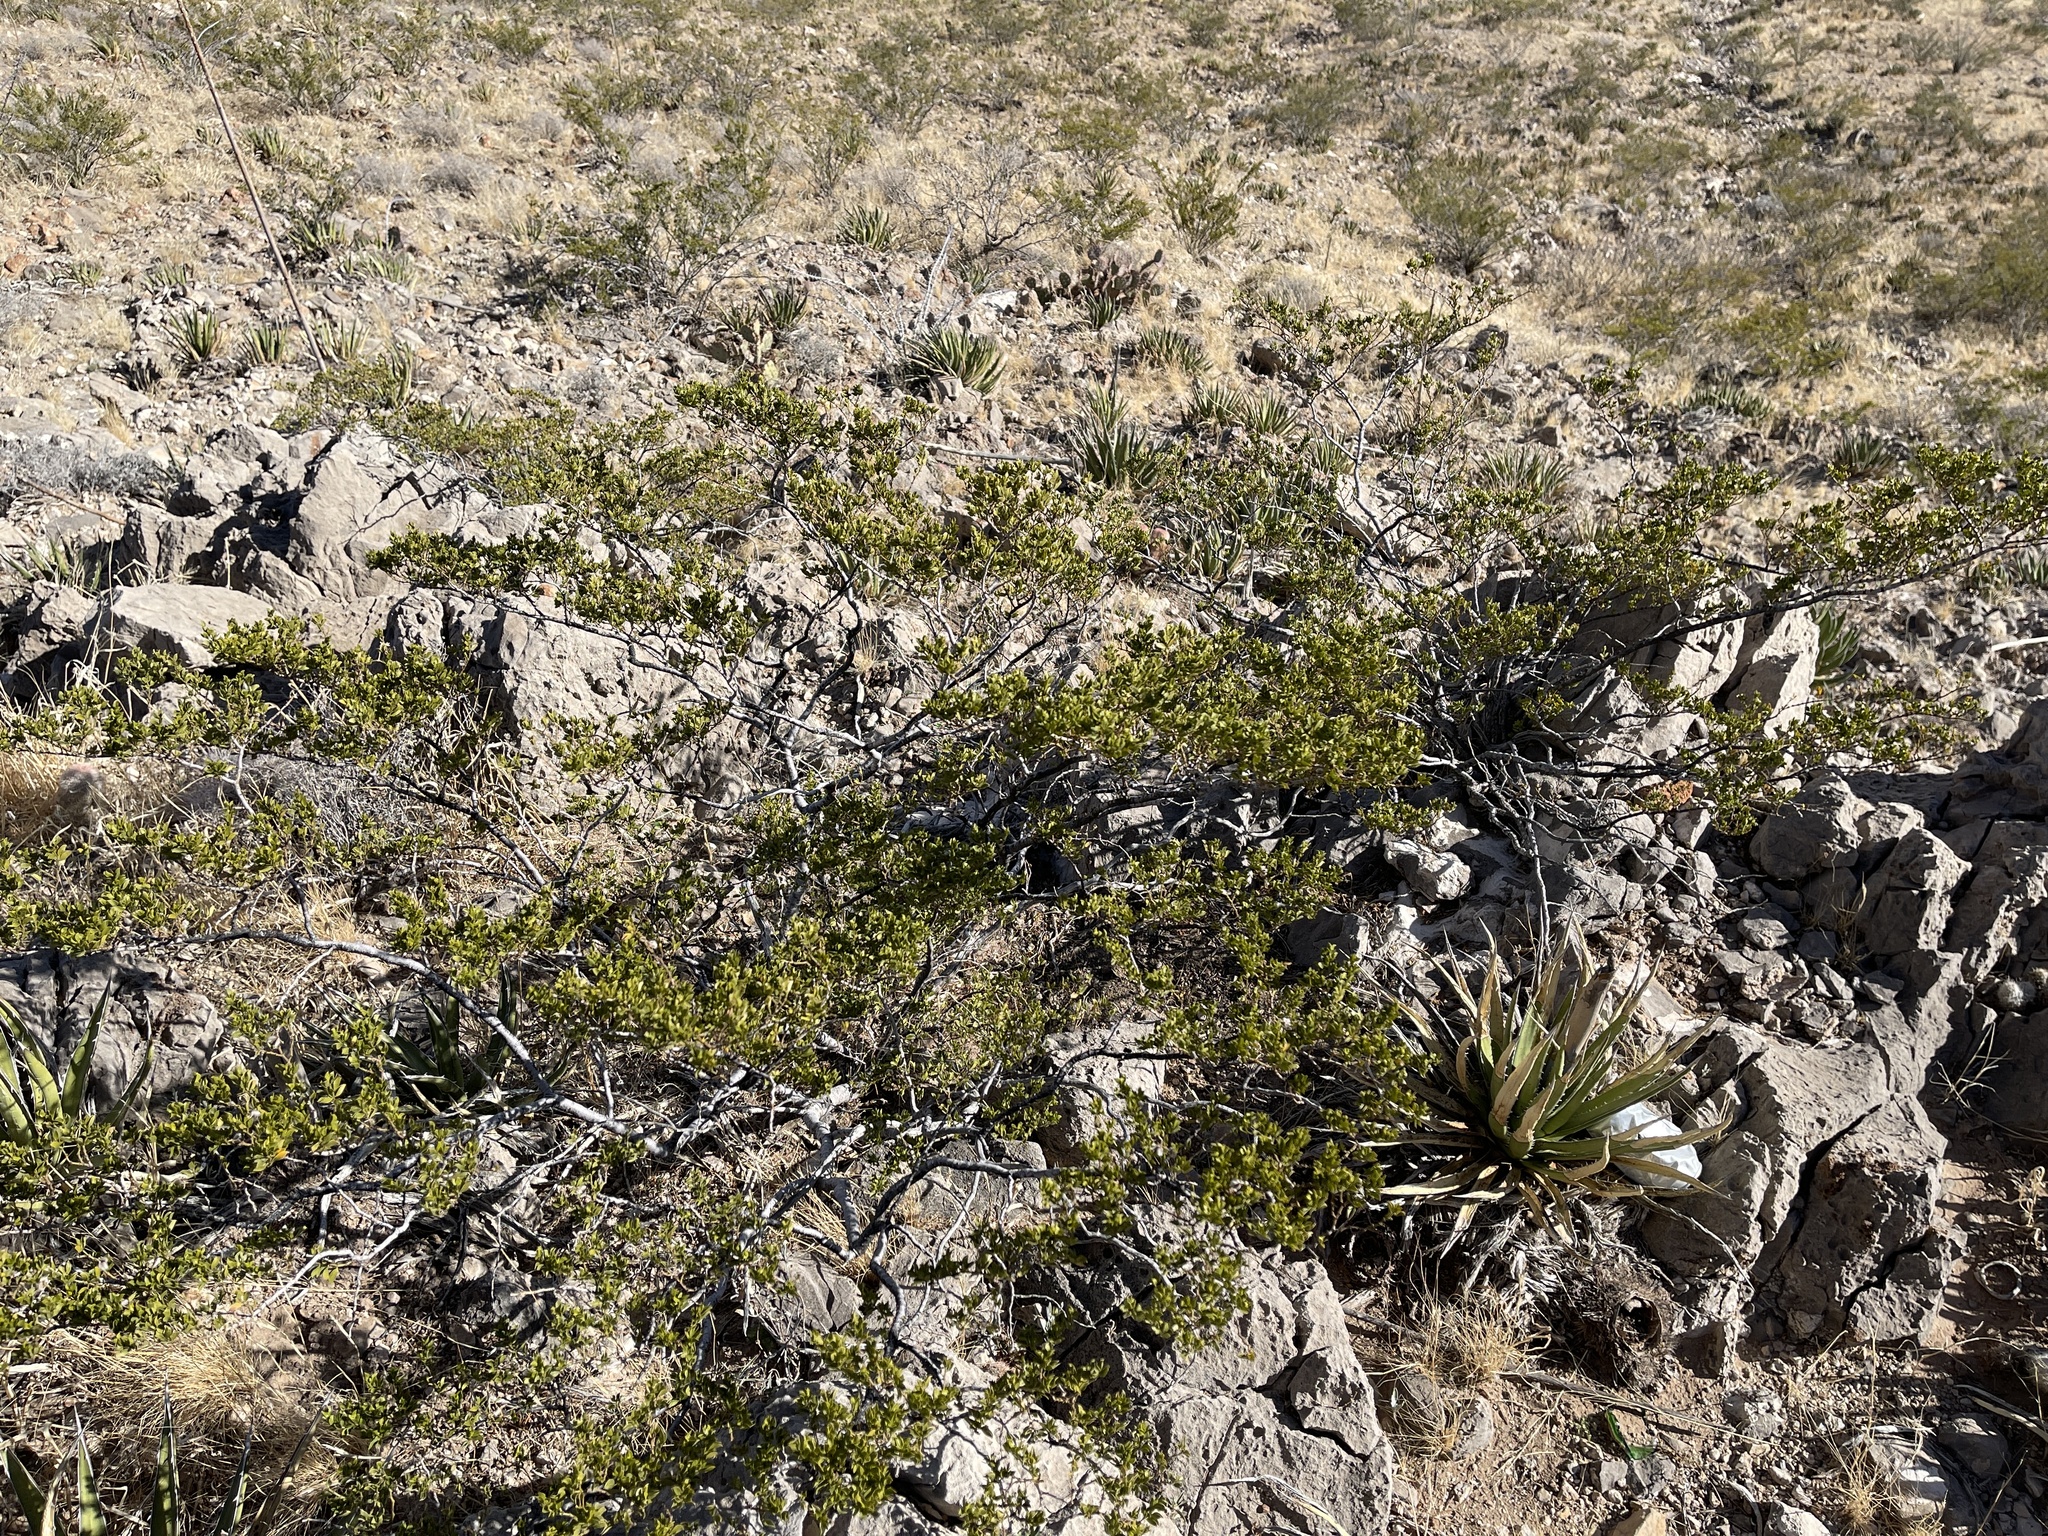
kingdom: Plantae
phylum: Tracheophyta
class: Magnoliopsida
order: Zygophyllales
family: Zygophyllaceae
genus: Larrea
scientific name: Larrea tridentata
